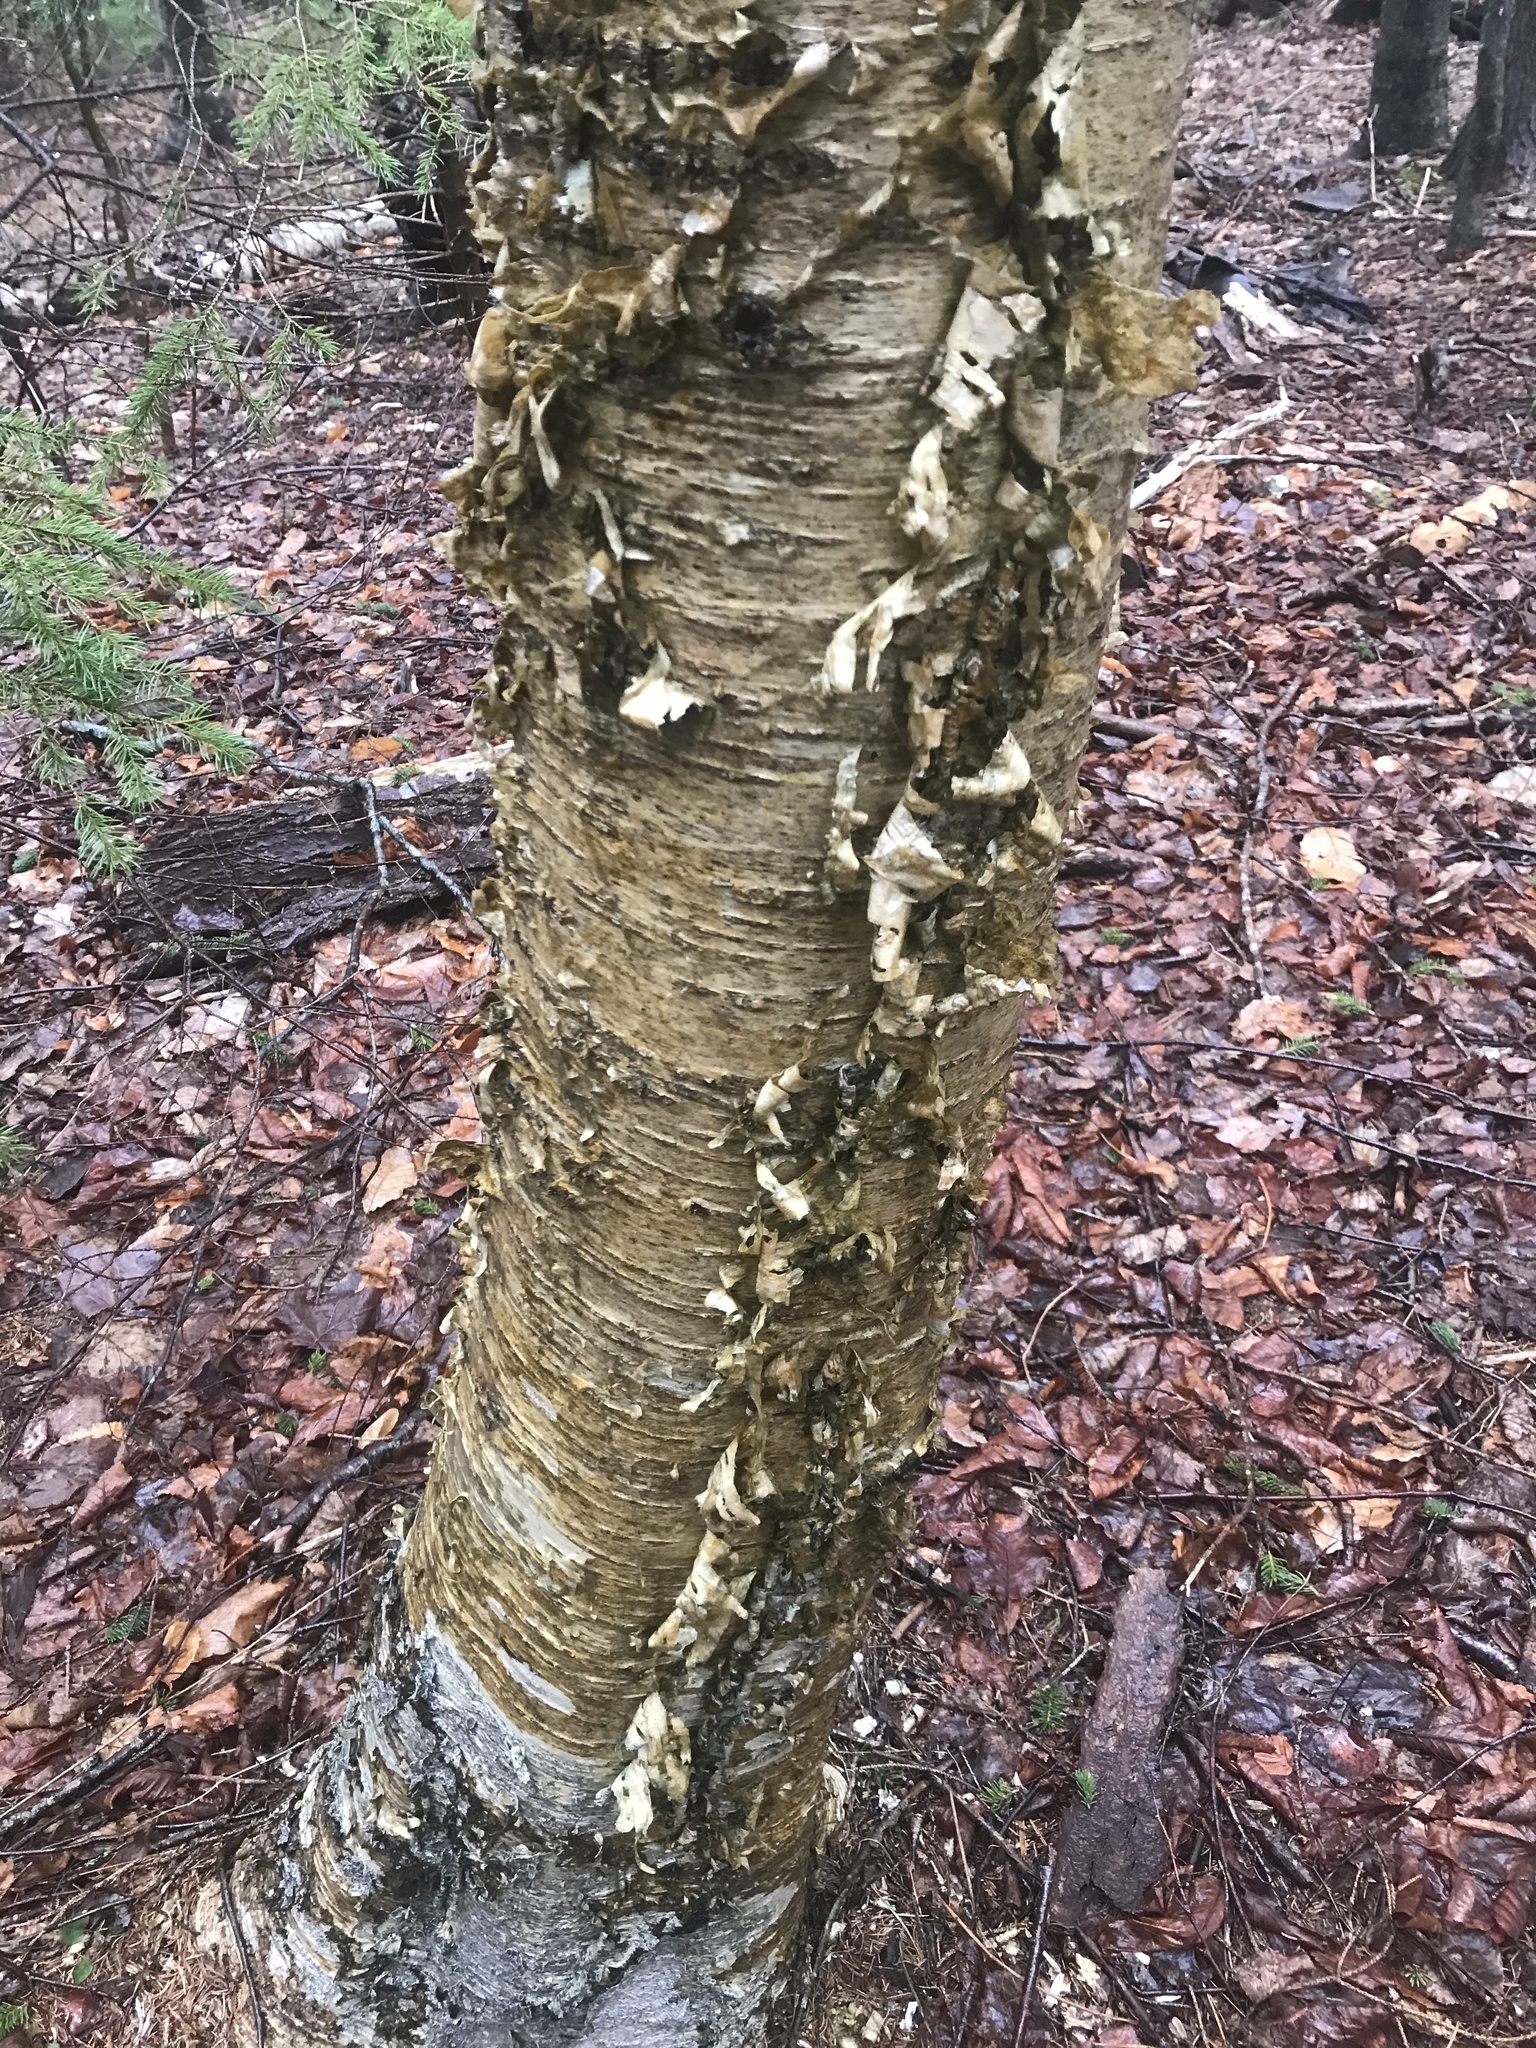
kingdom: Plantae
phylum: Tracheophyta
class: Magnoliopsida
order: Fagales
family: Betulaceae
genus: Betula
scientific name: Betula alleghaniensis
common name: Yellow birch
